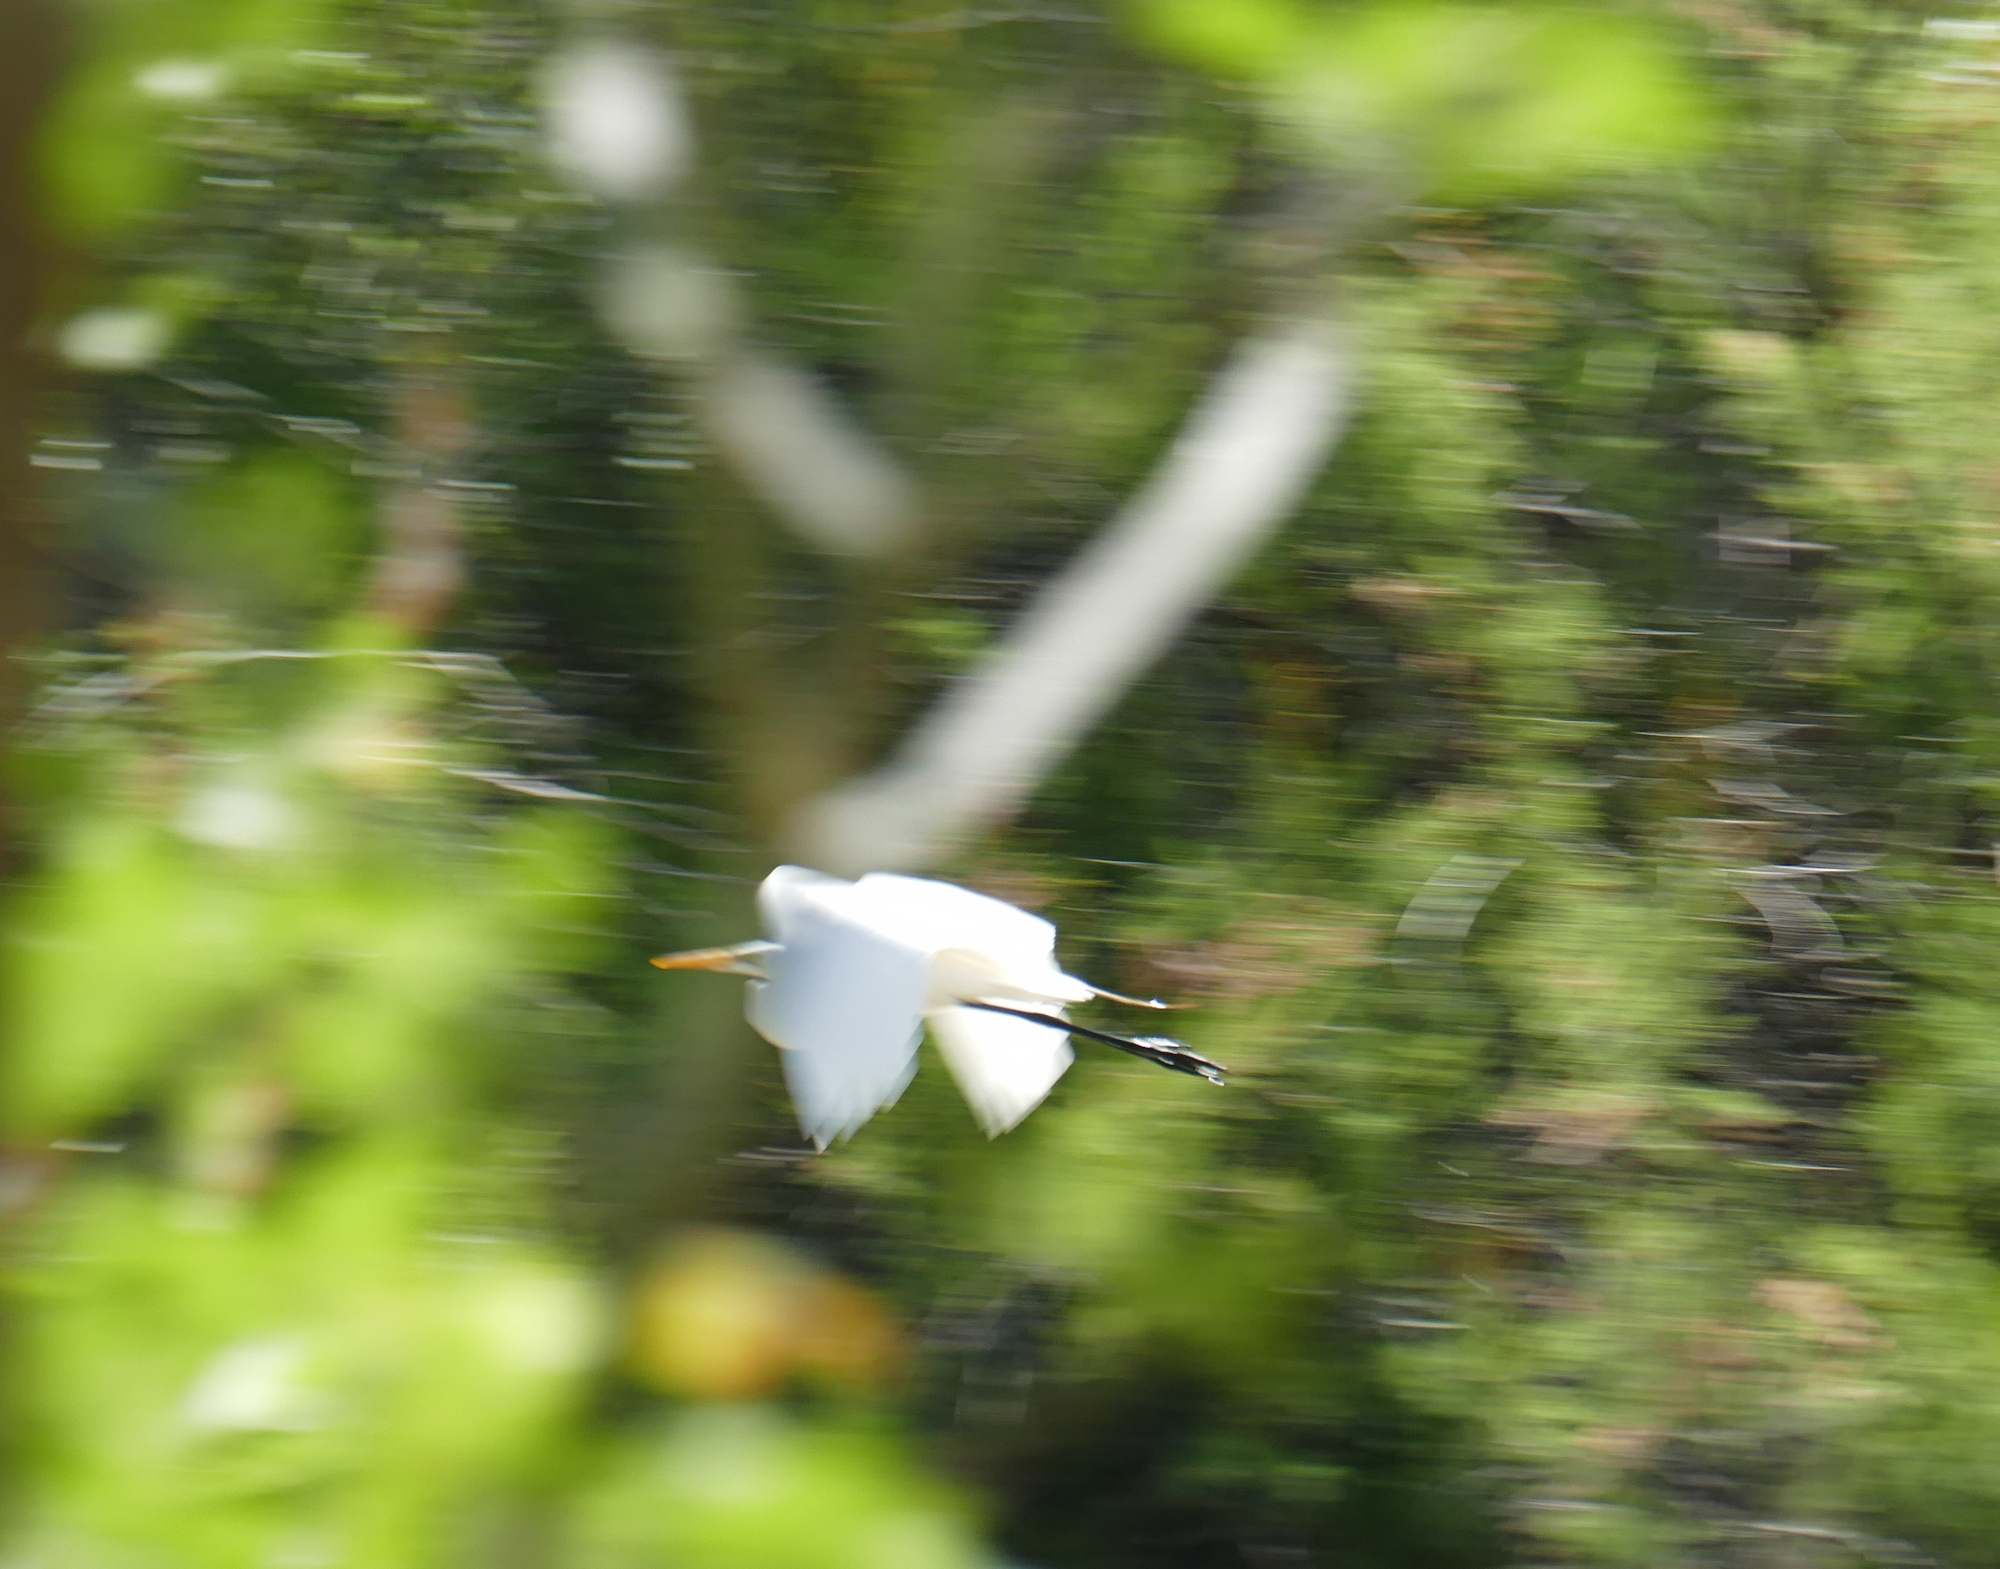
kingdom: Animalia
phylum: Chordata
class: Aves
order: Pelecaniformes
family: Ardeidae
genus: Ardea
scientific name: Ardea alba
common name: Great egret
